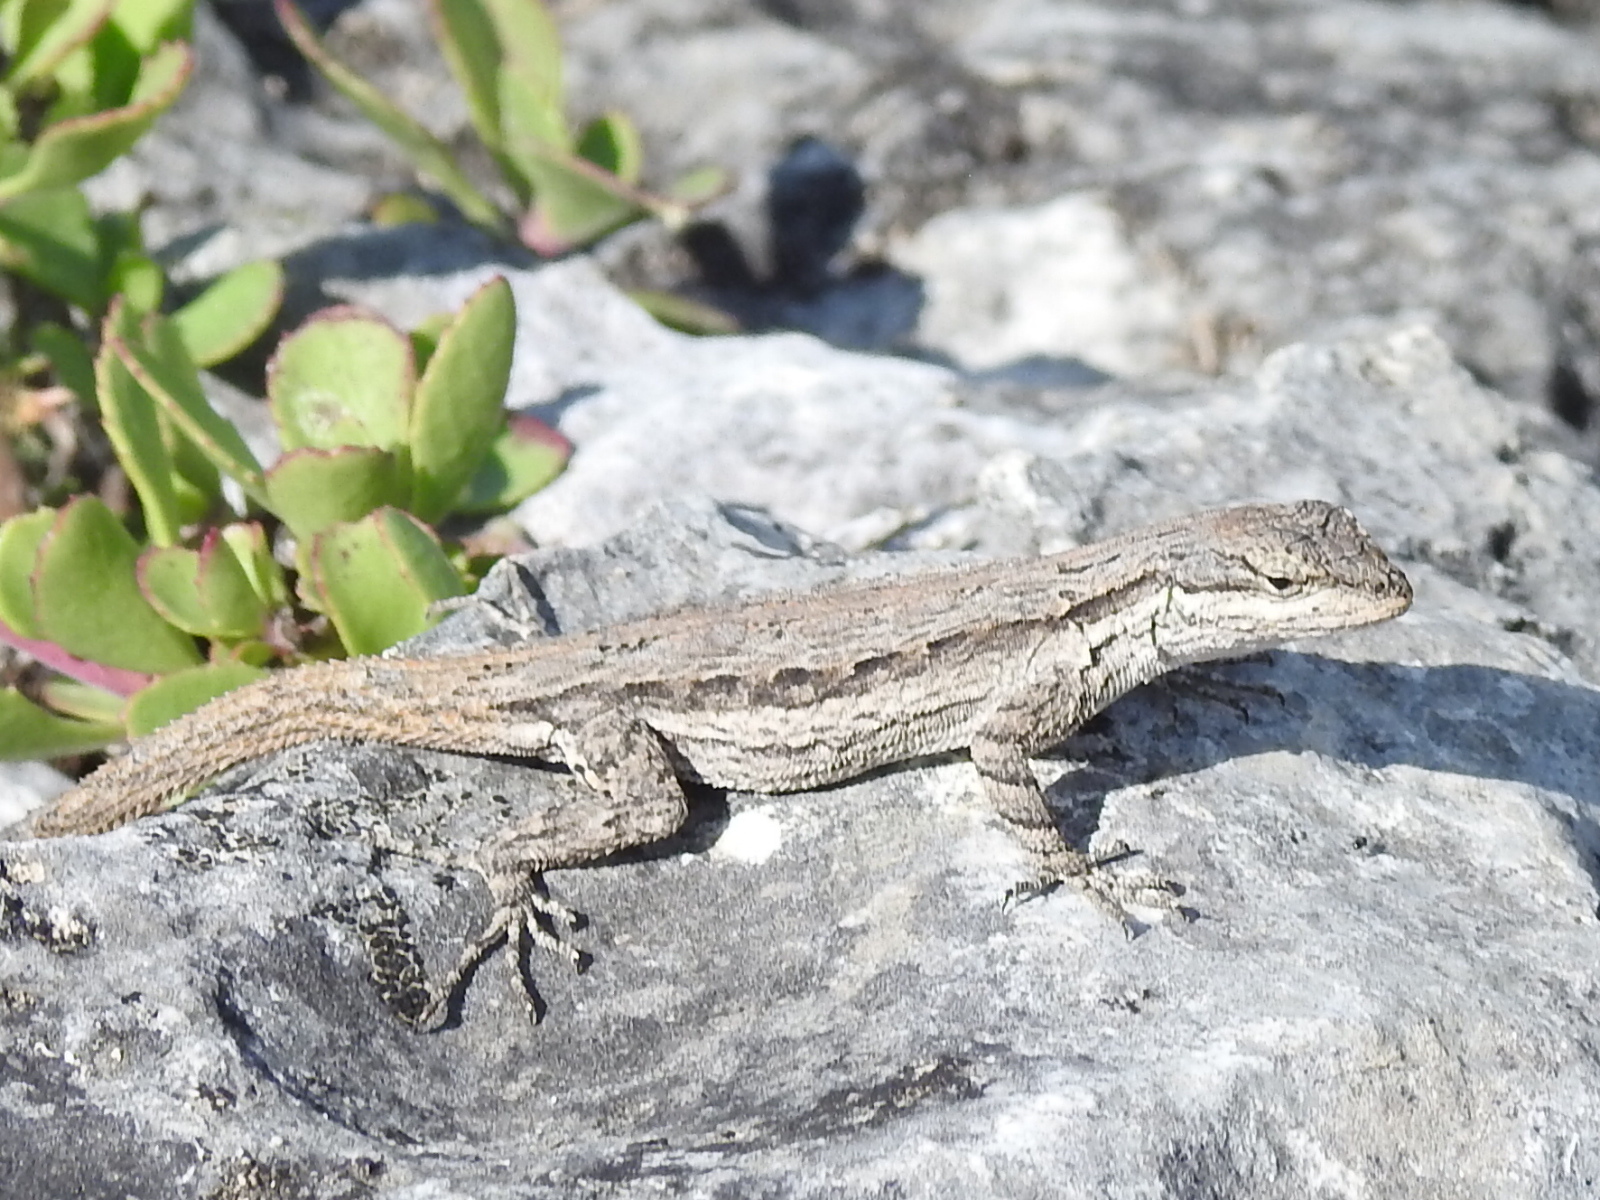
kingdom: Animalia
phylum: Chordata
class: Squamata
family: Phrynosomatidae
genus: Urosaurus
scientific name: Urosaurus ornatus
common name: Ornate tree lizard
